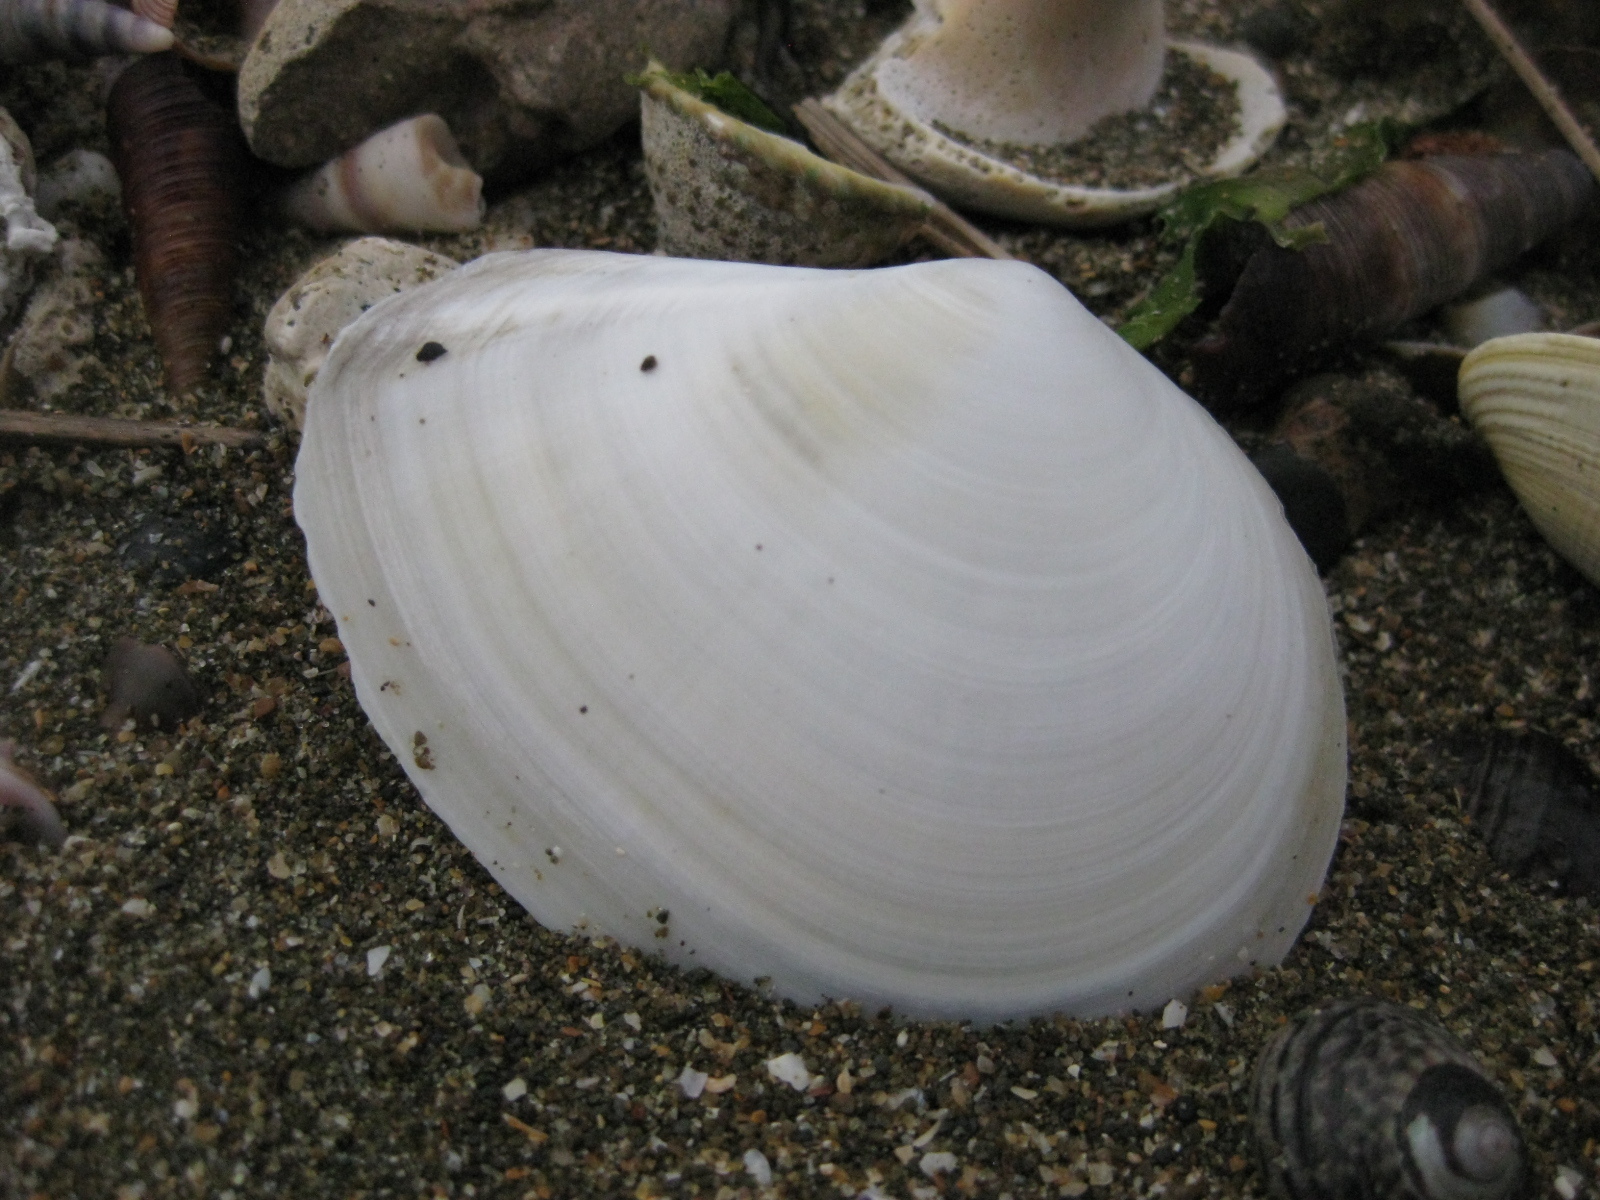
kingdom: Animalia
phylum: Mollusca
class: Bivalvia
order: Cardiida
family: Tellinidae
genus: Macomona
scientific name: Macomona liliana
